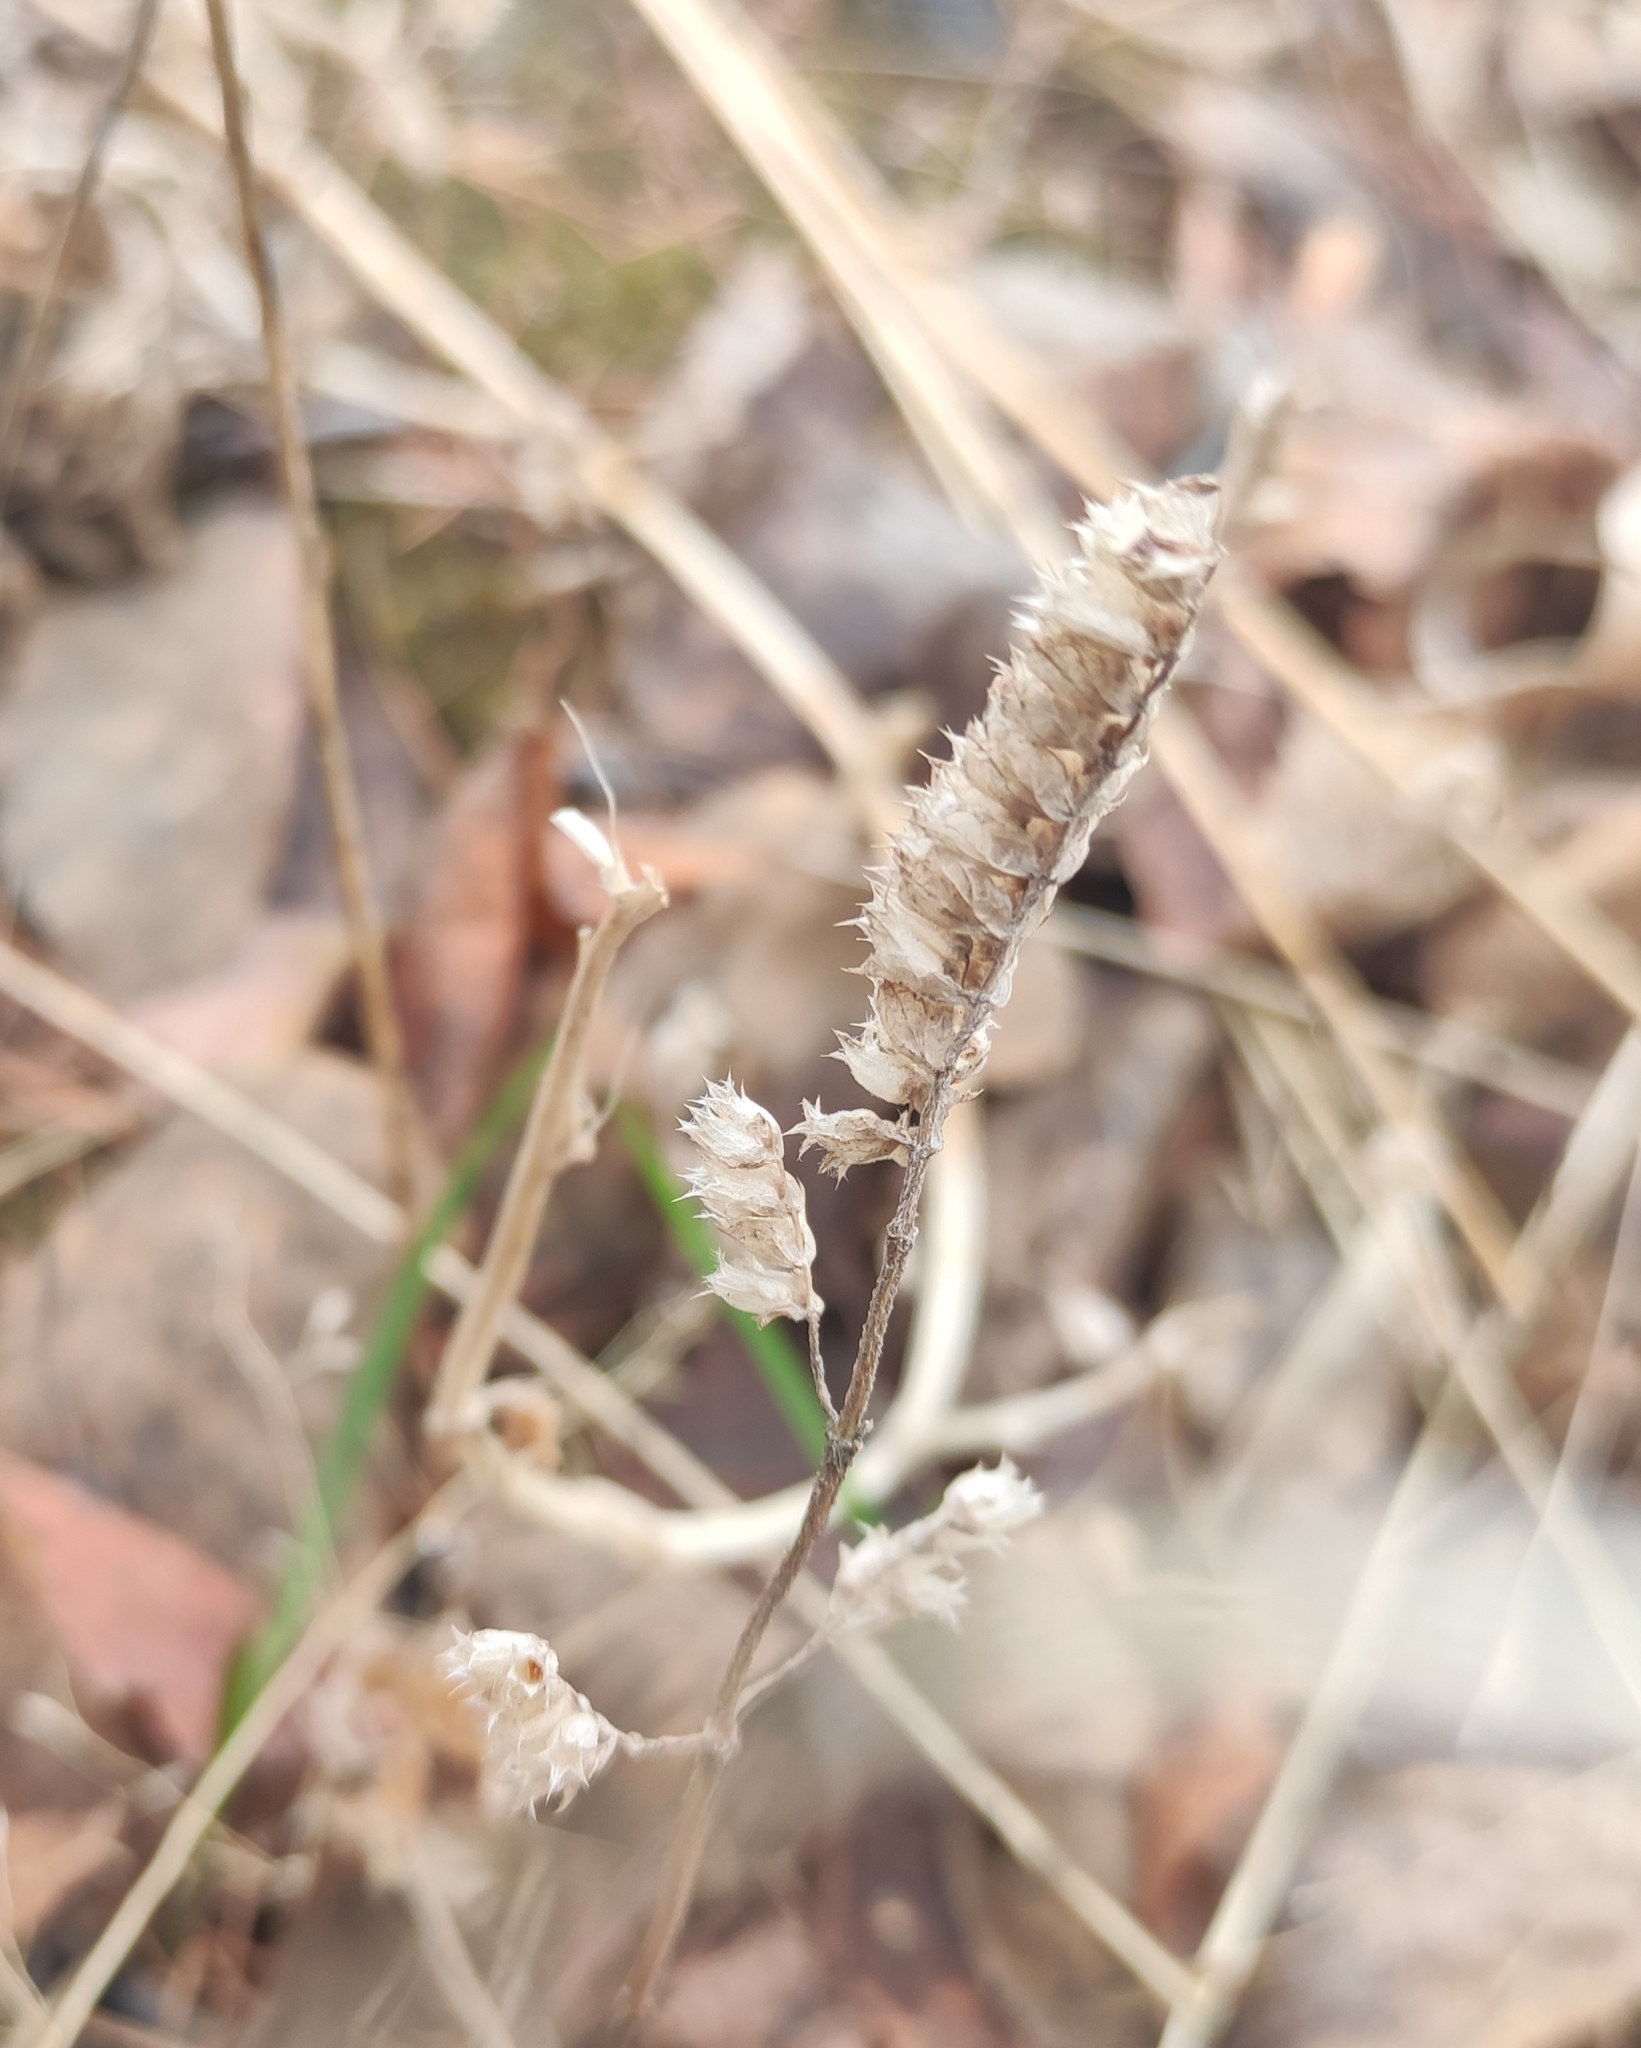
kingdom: Plantae
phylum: Tracheophyta
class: Magnoliopsida
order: Lamiales
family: Lamiaceae
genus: Elsholtzia
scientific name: Elsholtzia ciliata
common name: Ciliate elsholtzia
